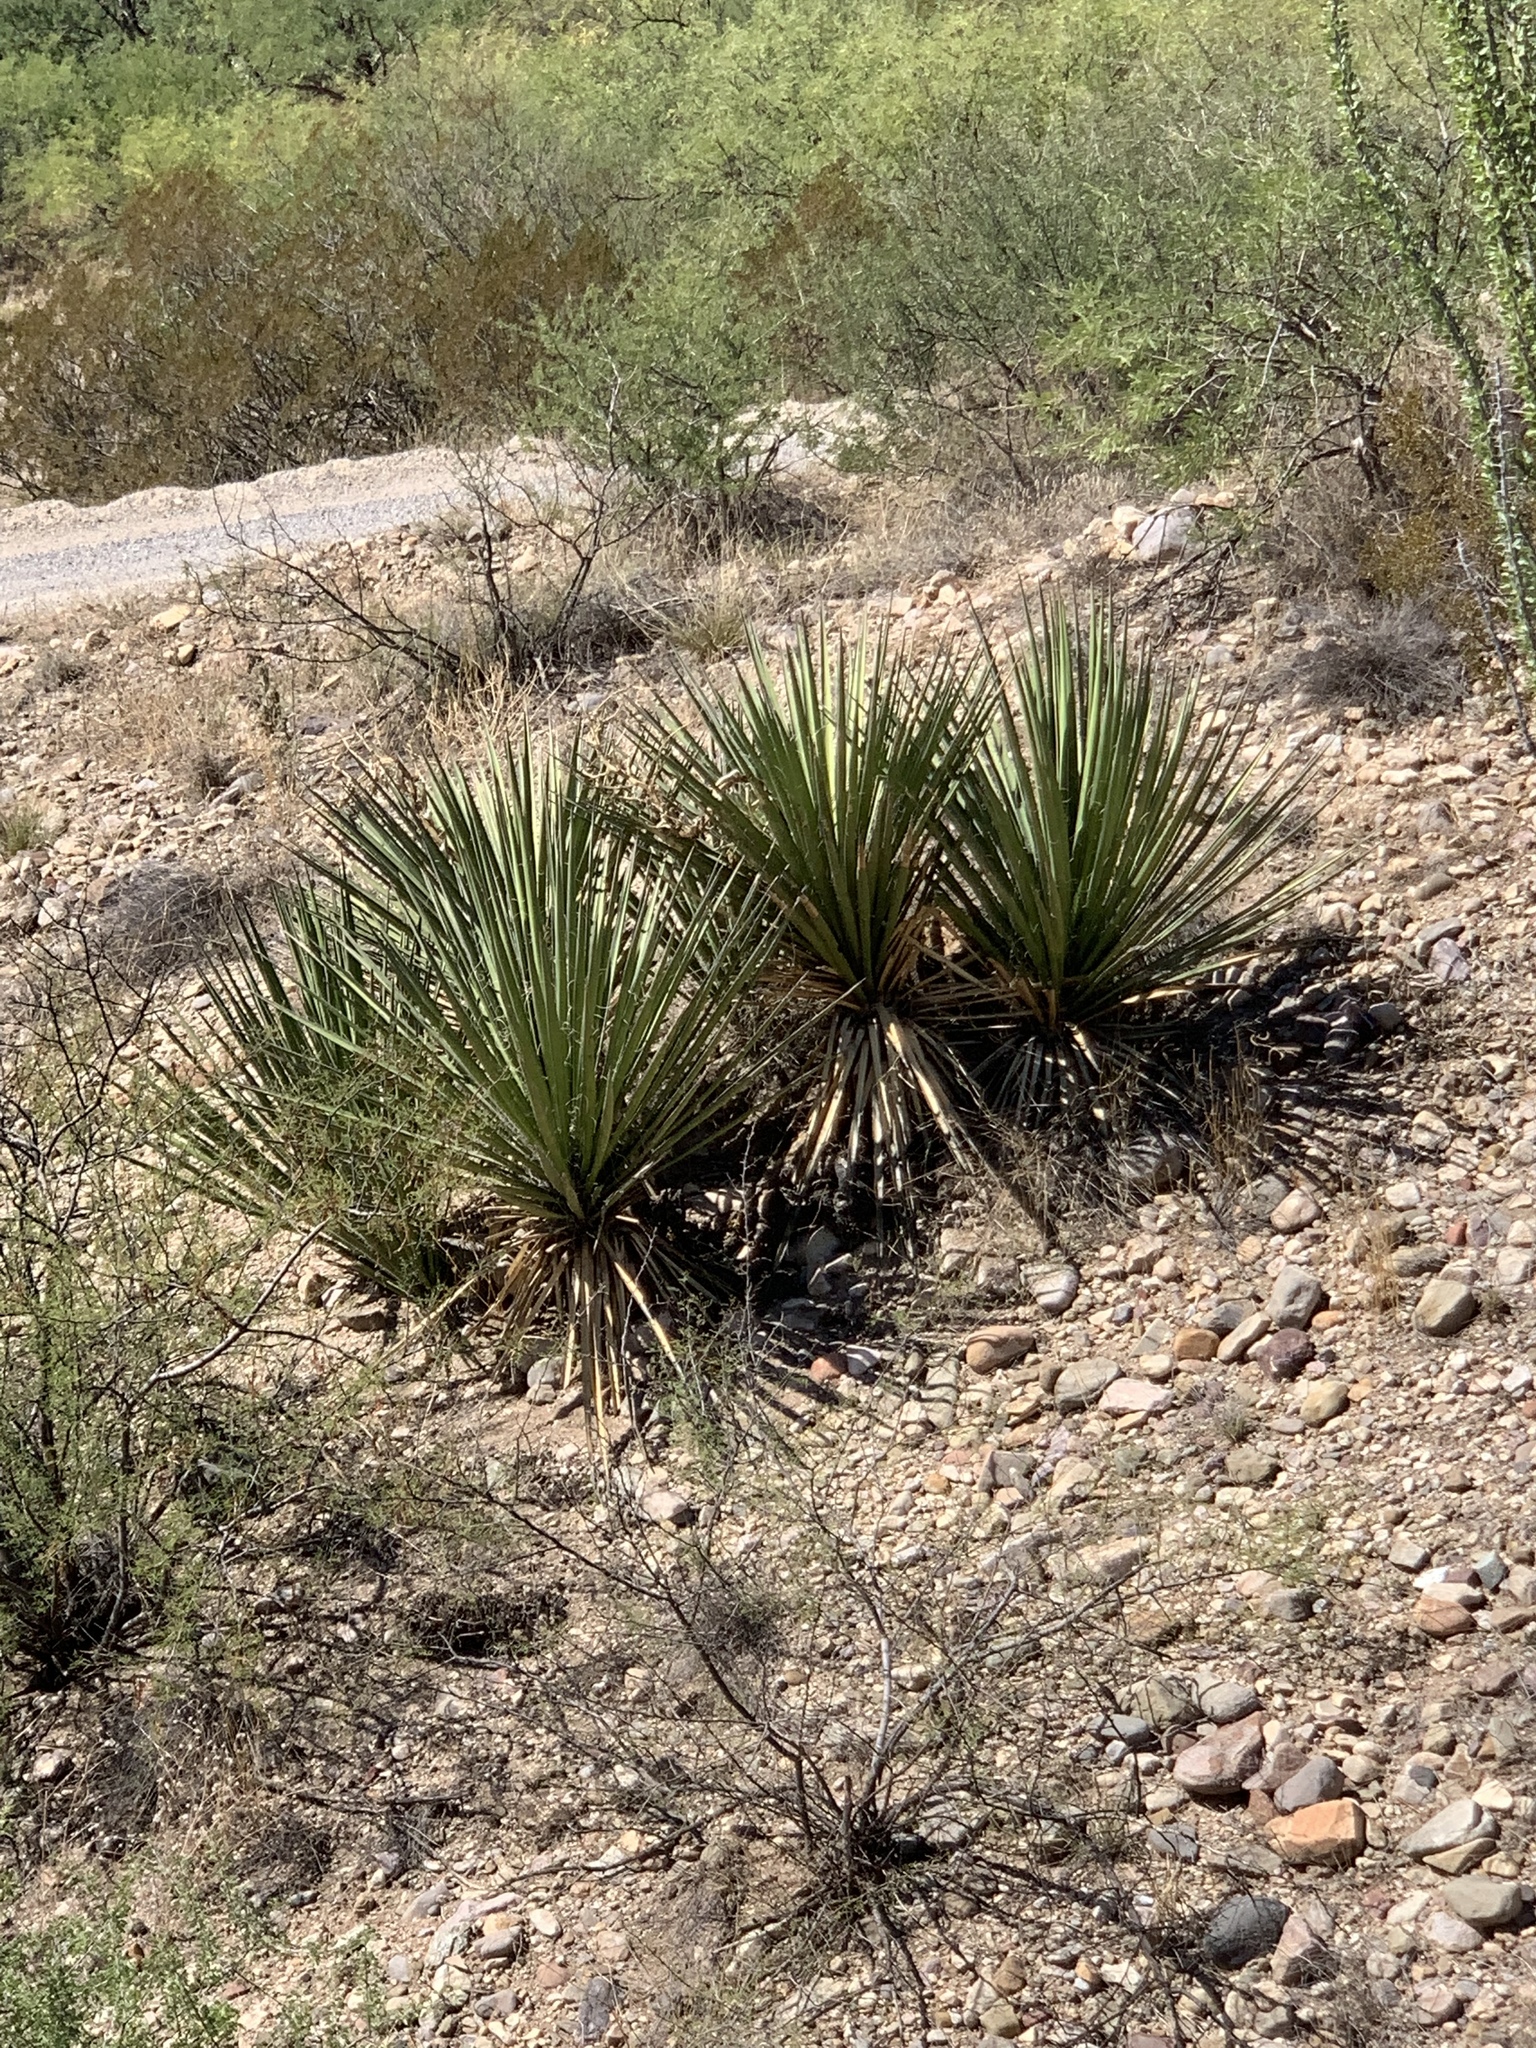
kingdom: Plantae
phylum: Tracheophyta
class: Liliopsida
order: Asparagales
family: Asparagaceae
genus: Yucca
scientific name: Yucca baccata
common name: Banana yucca
